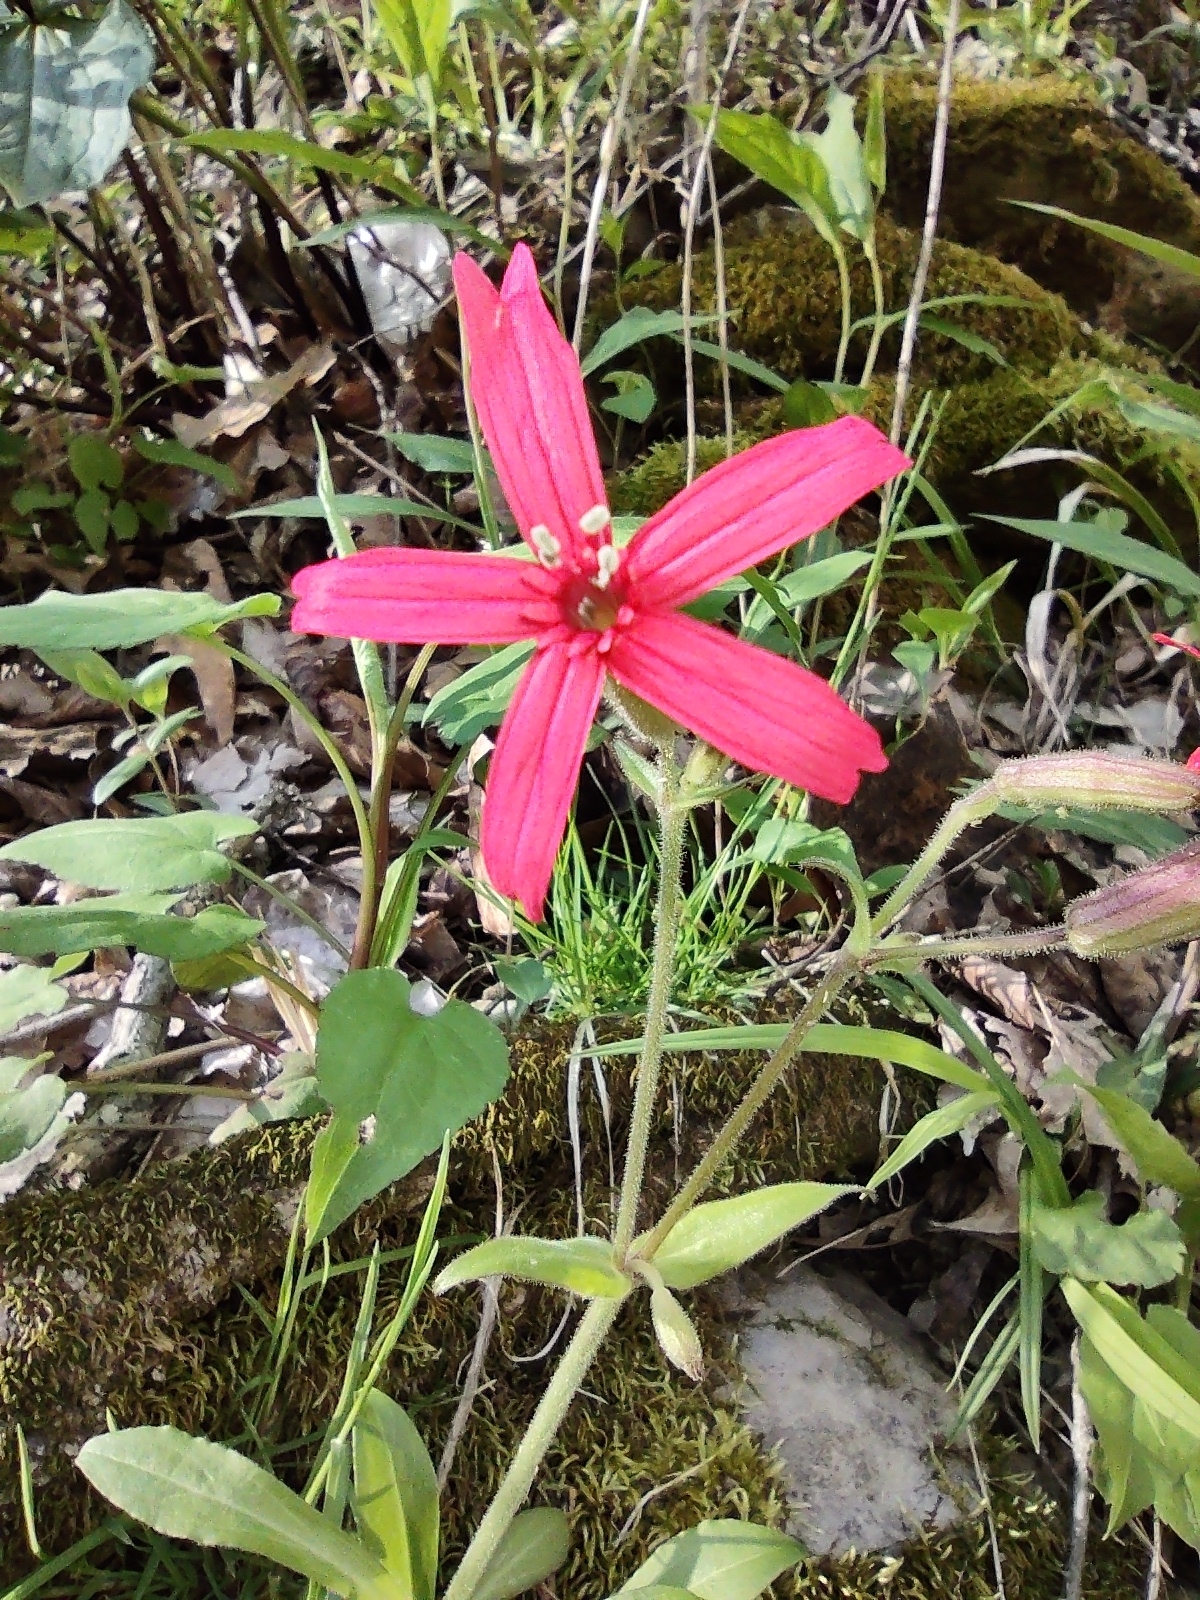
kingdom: Plantae
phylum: Tracheophyta
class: Magnoliopsida
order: Caryophyllales
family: Caryophyllaceae
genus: Silene
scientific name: Silene virginica
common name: Fire-pink
